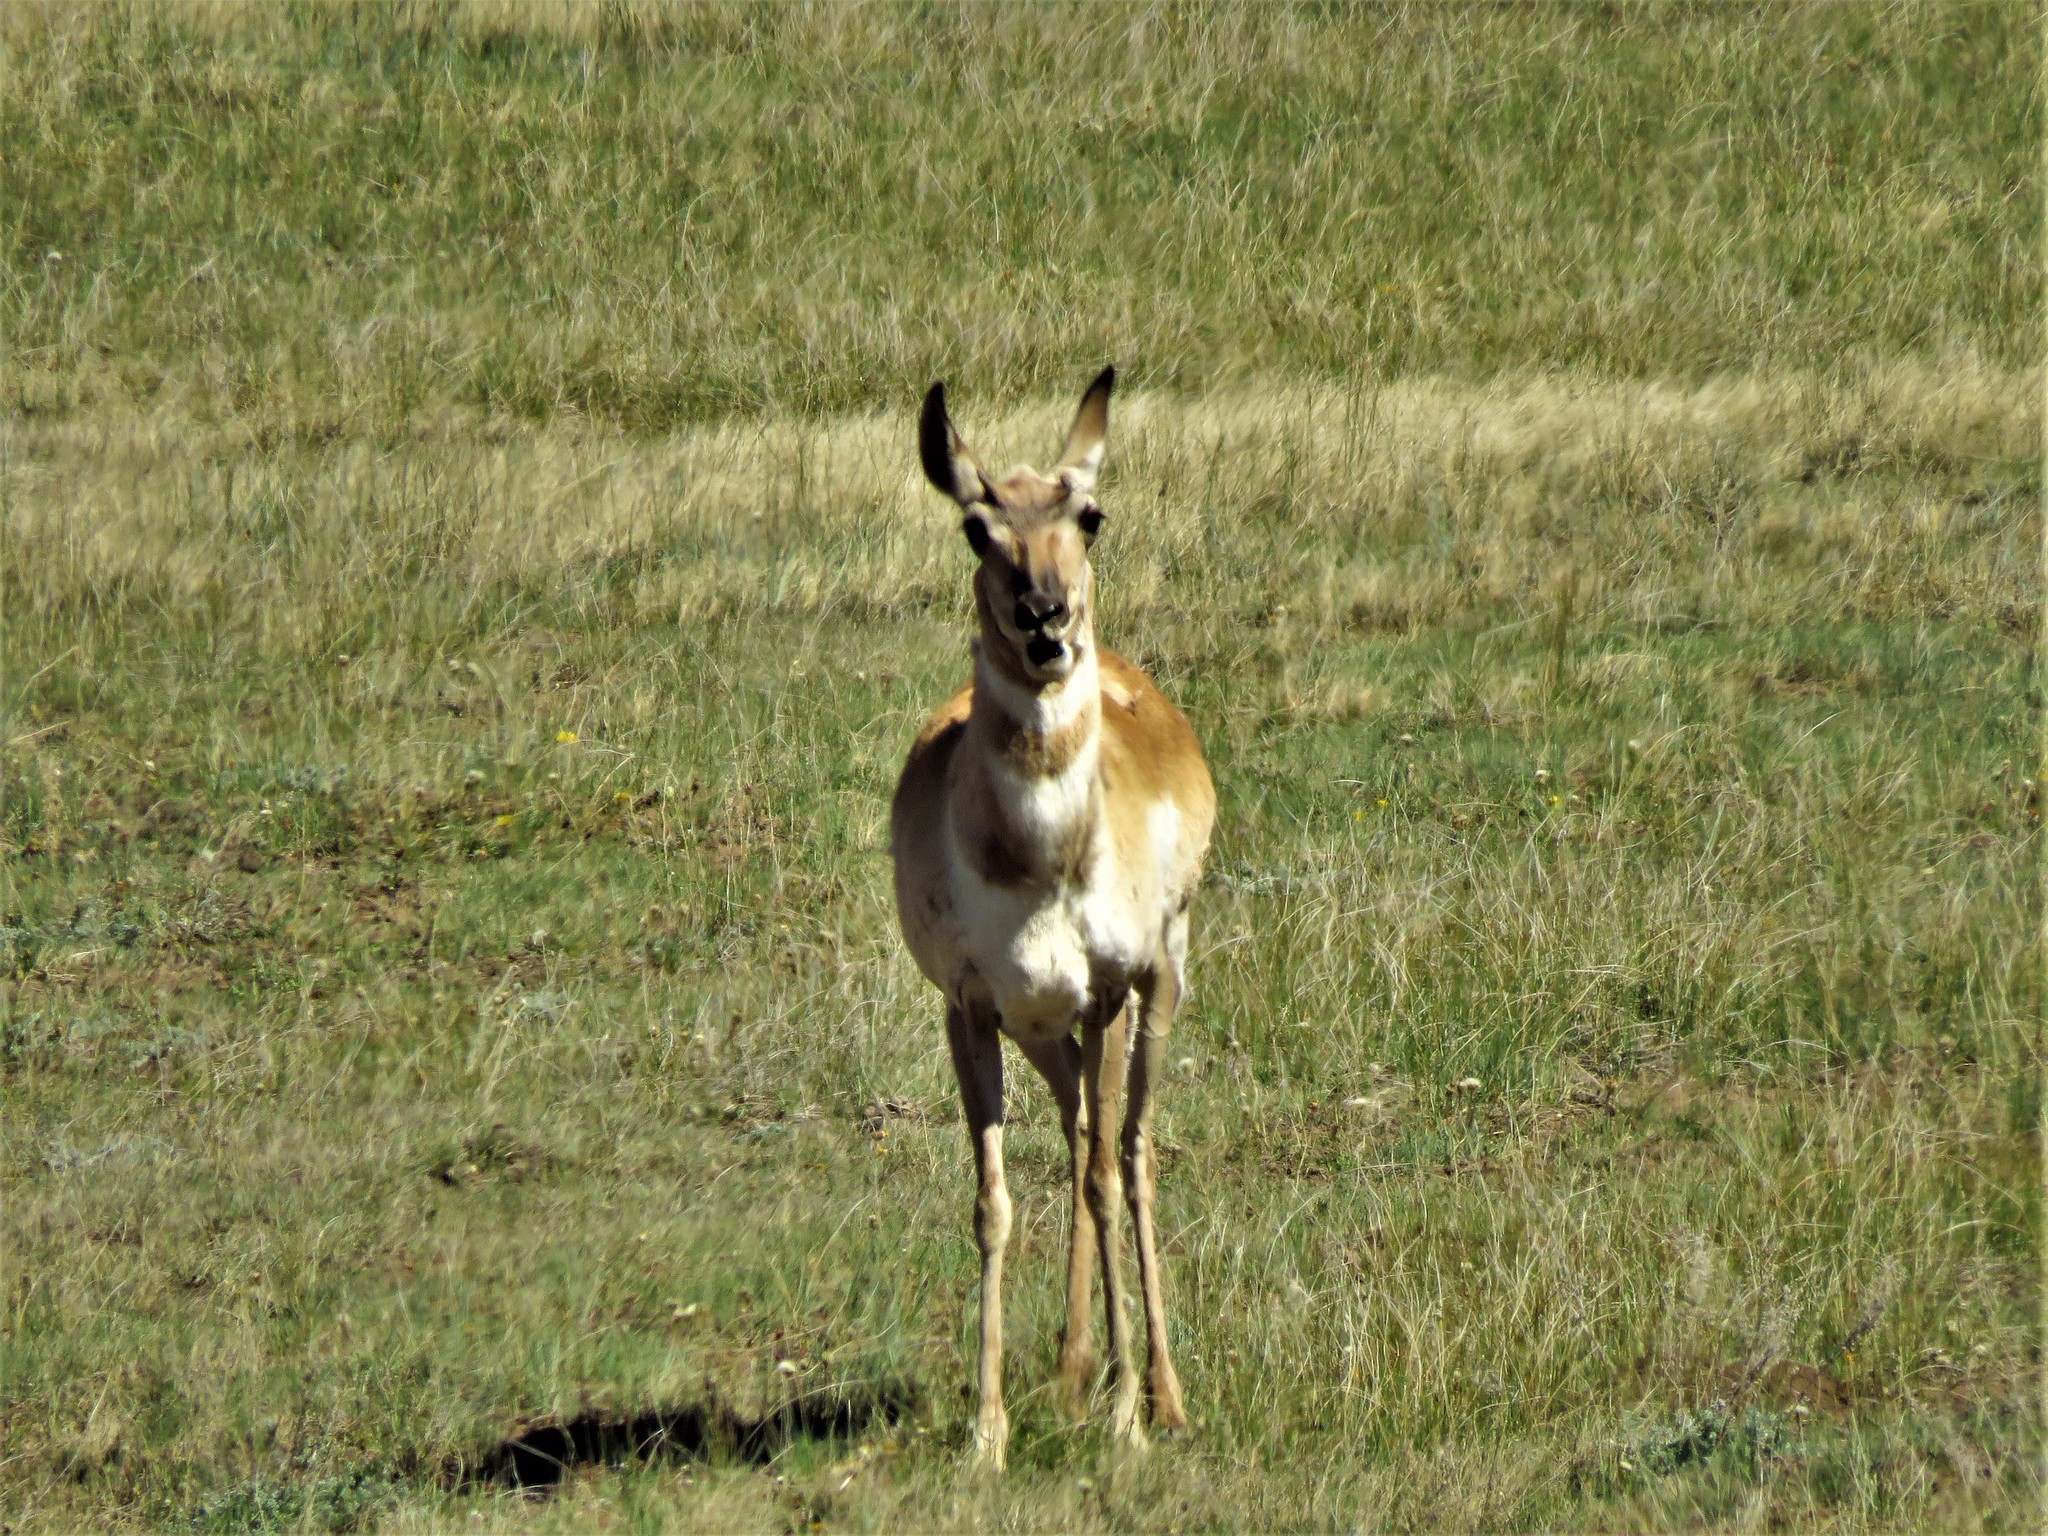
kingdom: Animalia
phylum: Chordata
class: Mammalia
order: Artiodactyla
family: Antilocapridae
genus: Antilocapra
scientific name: Antilocapra americana
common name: Pronghorn
